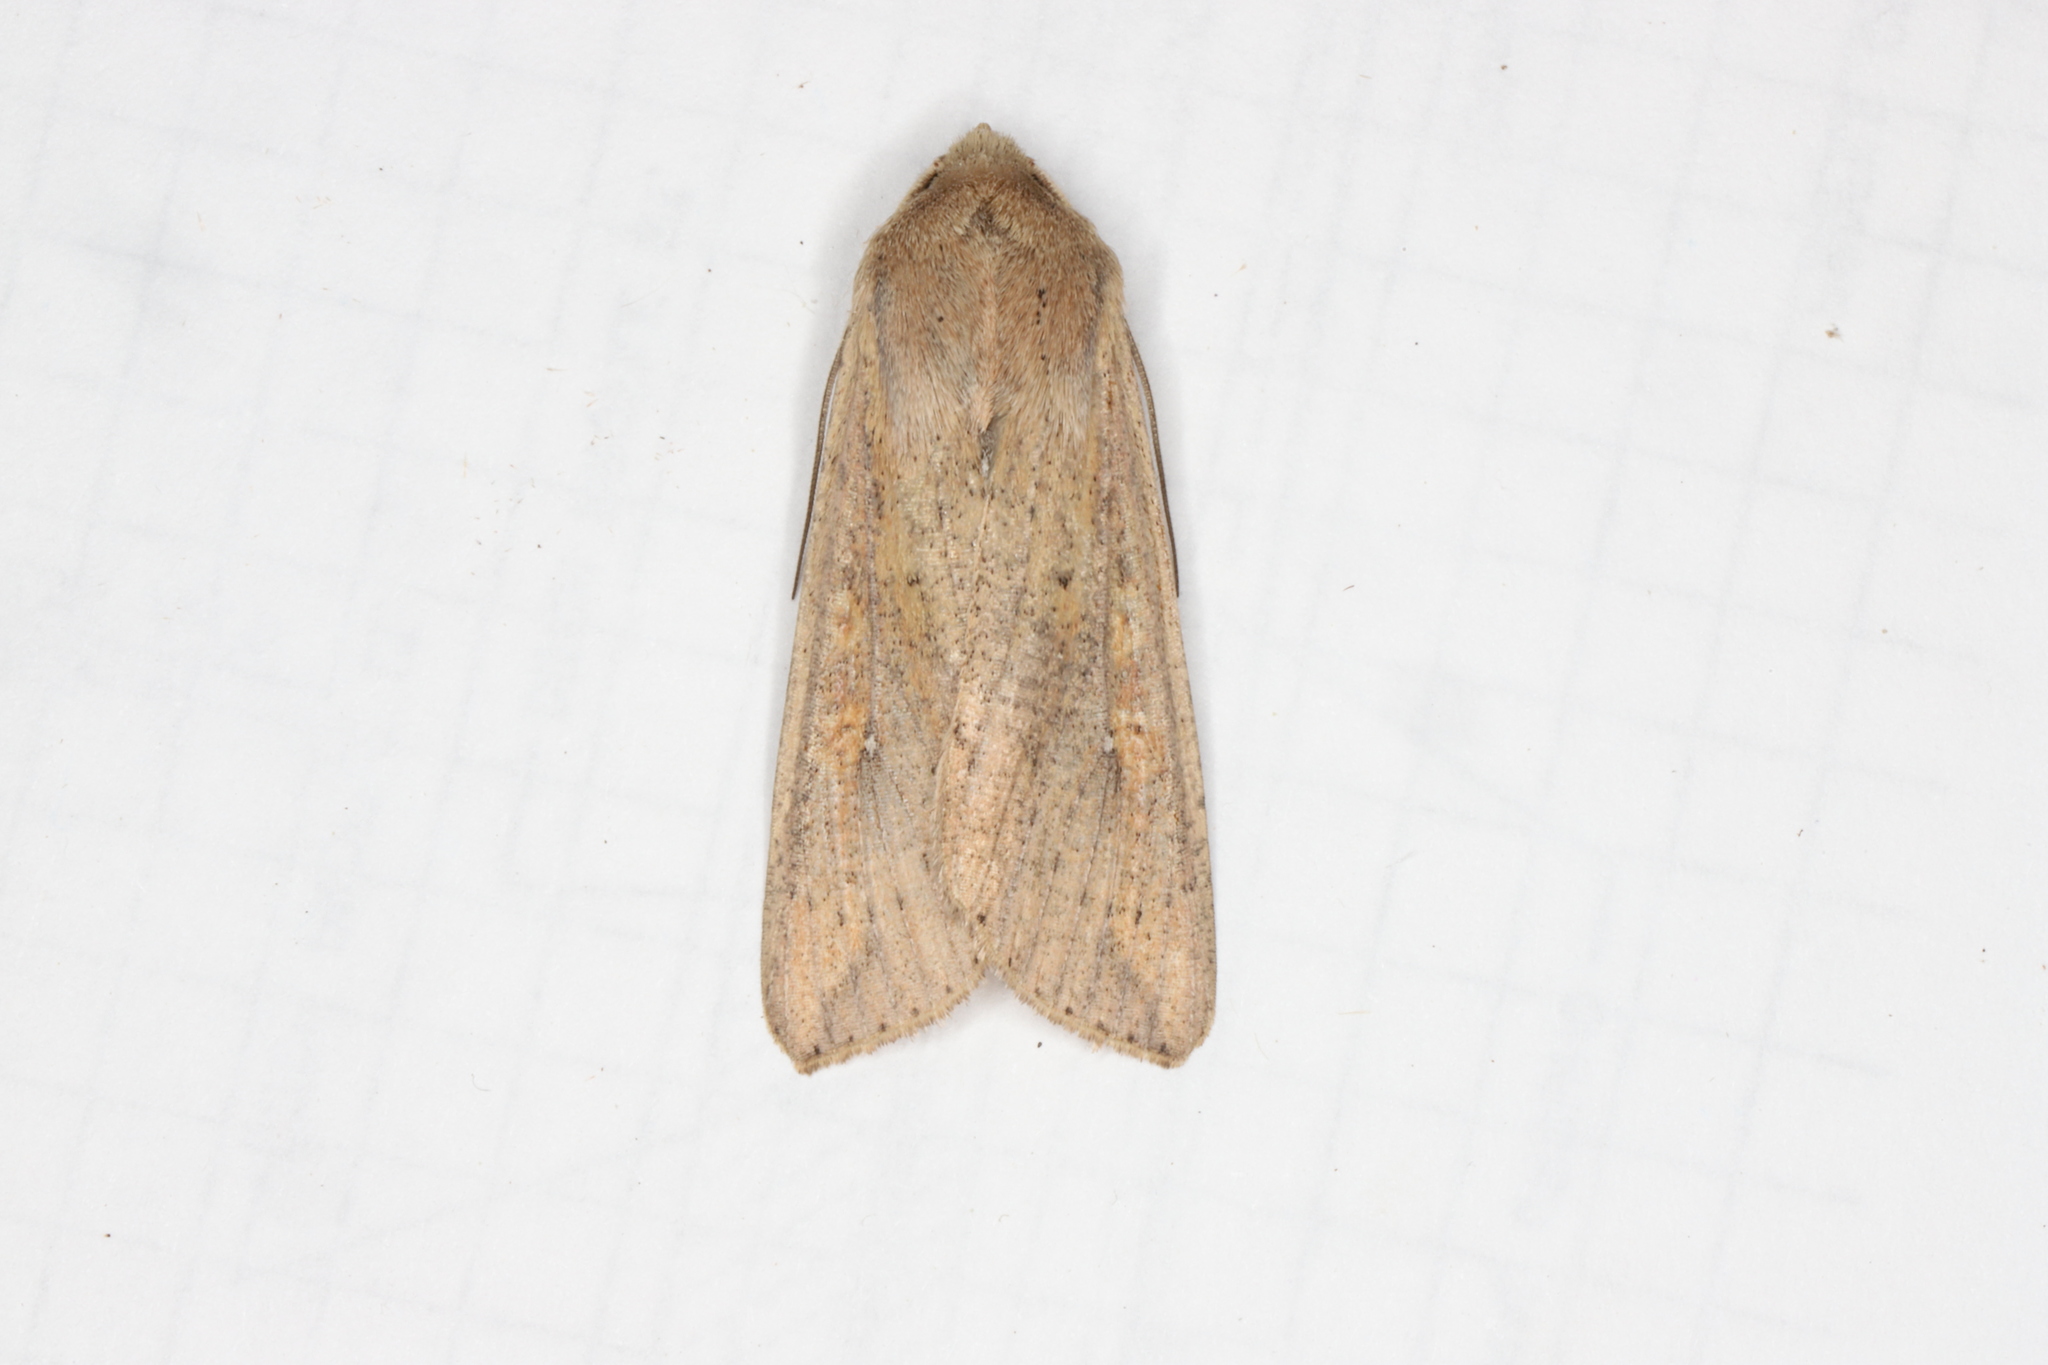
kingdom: Animalia
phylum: Arthropoda
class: Insecta
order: Lepidoptera
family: Noctuidae
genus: Mythimna
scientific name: Mythimna unipuncta
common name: White-speck
